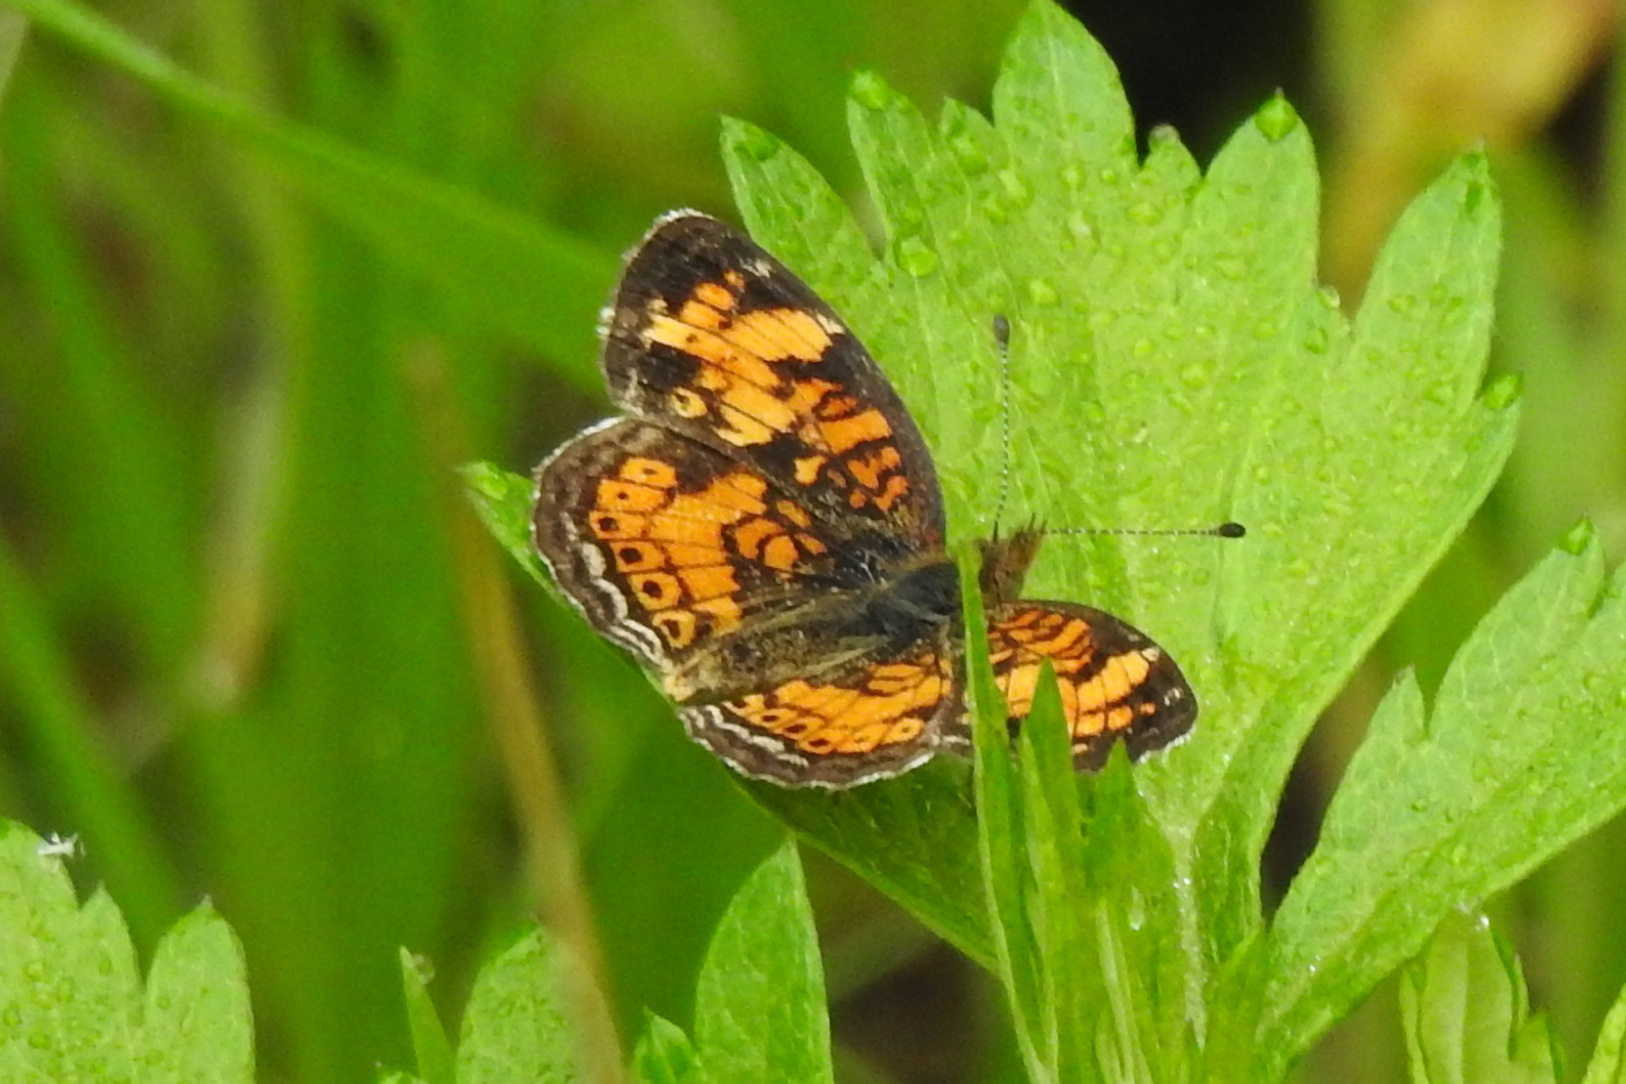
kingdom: Animalia
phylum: Arthropoda
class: Insecta
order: Lepidoptera
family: Nymphalidae
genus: Phyciodes
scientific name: Phyciodes tharos
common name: Pearl crescent
